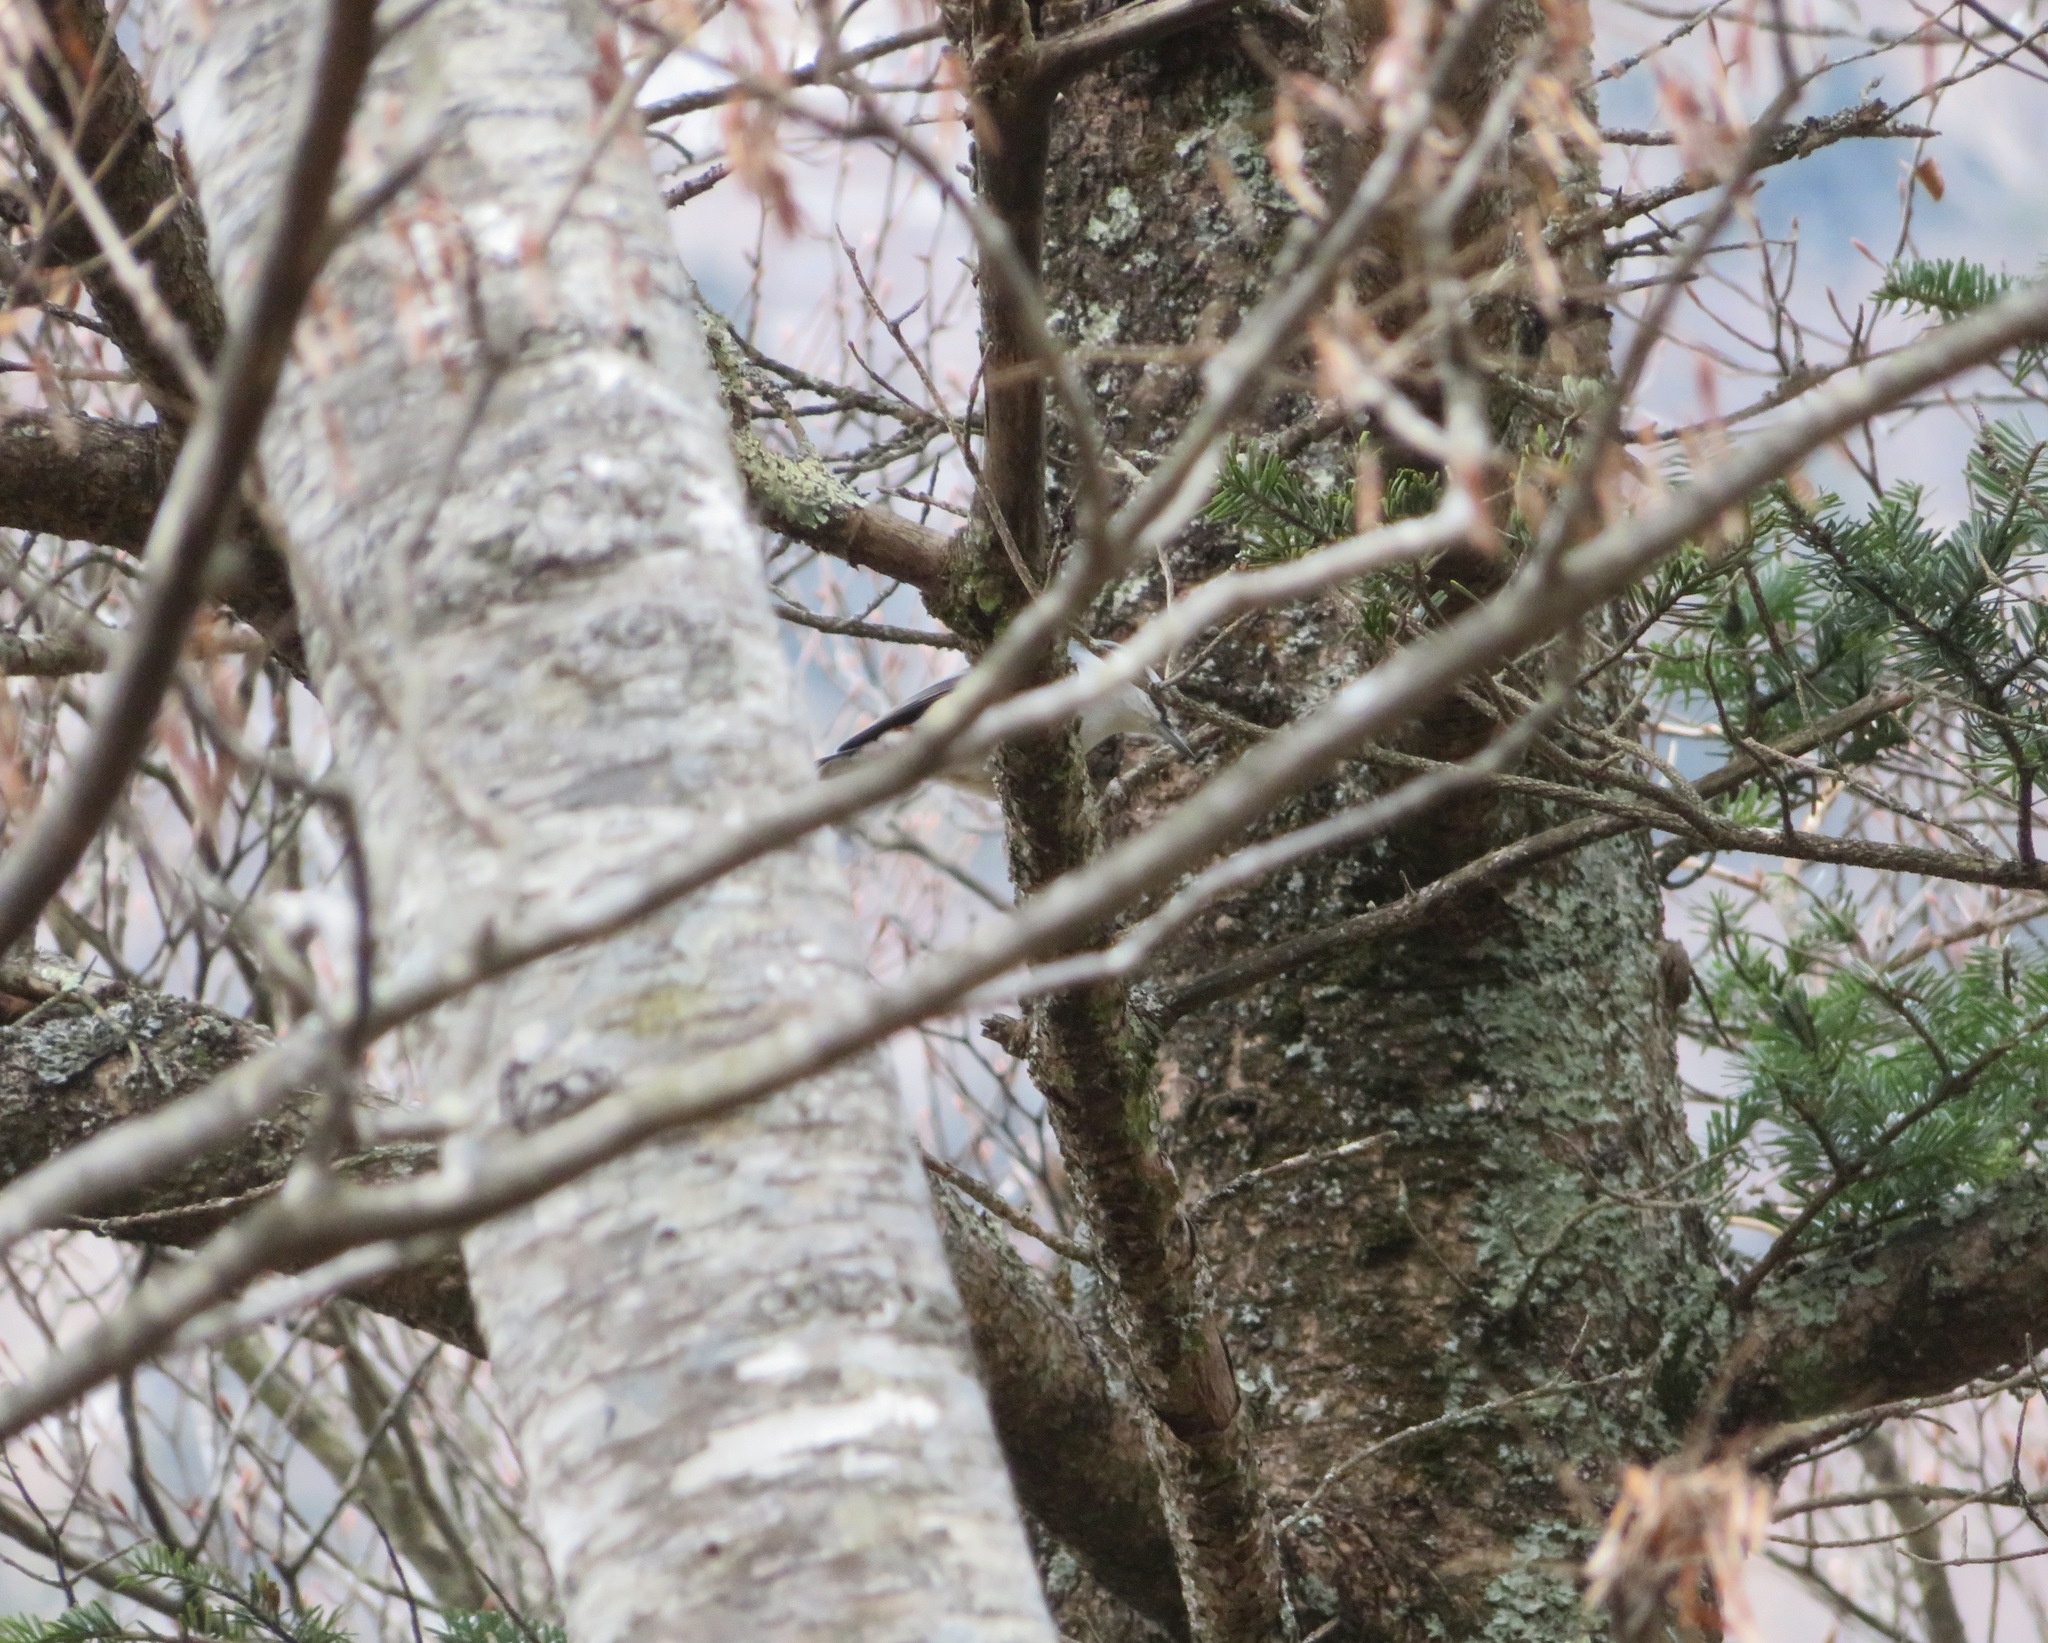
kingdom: Animalia
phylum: Chordata
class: Aves
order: Passeriformes
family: Sittidae
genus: Sitta
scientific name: Sitta europaea
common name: Eurasian nuthatch
